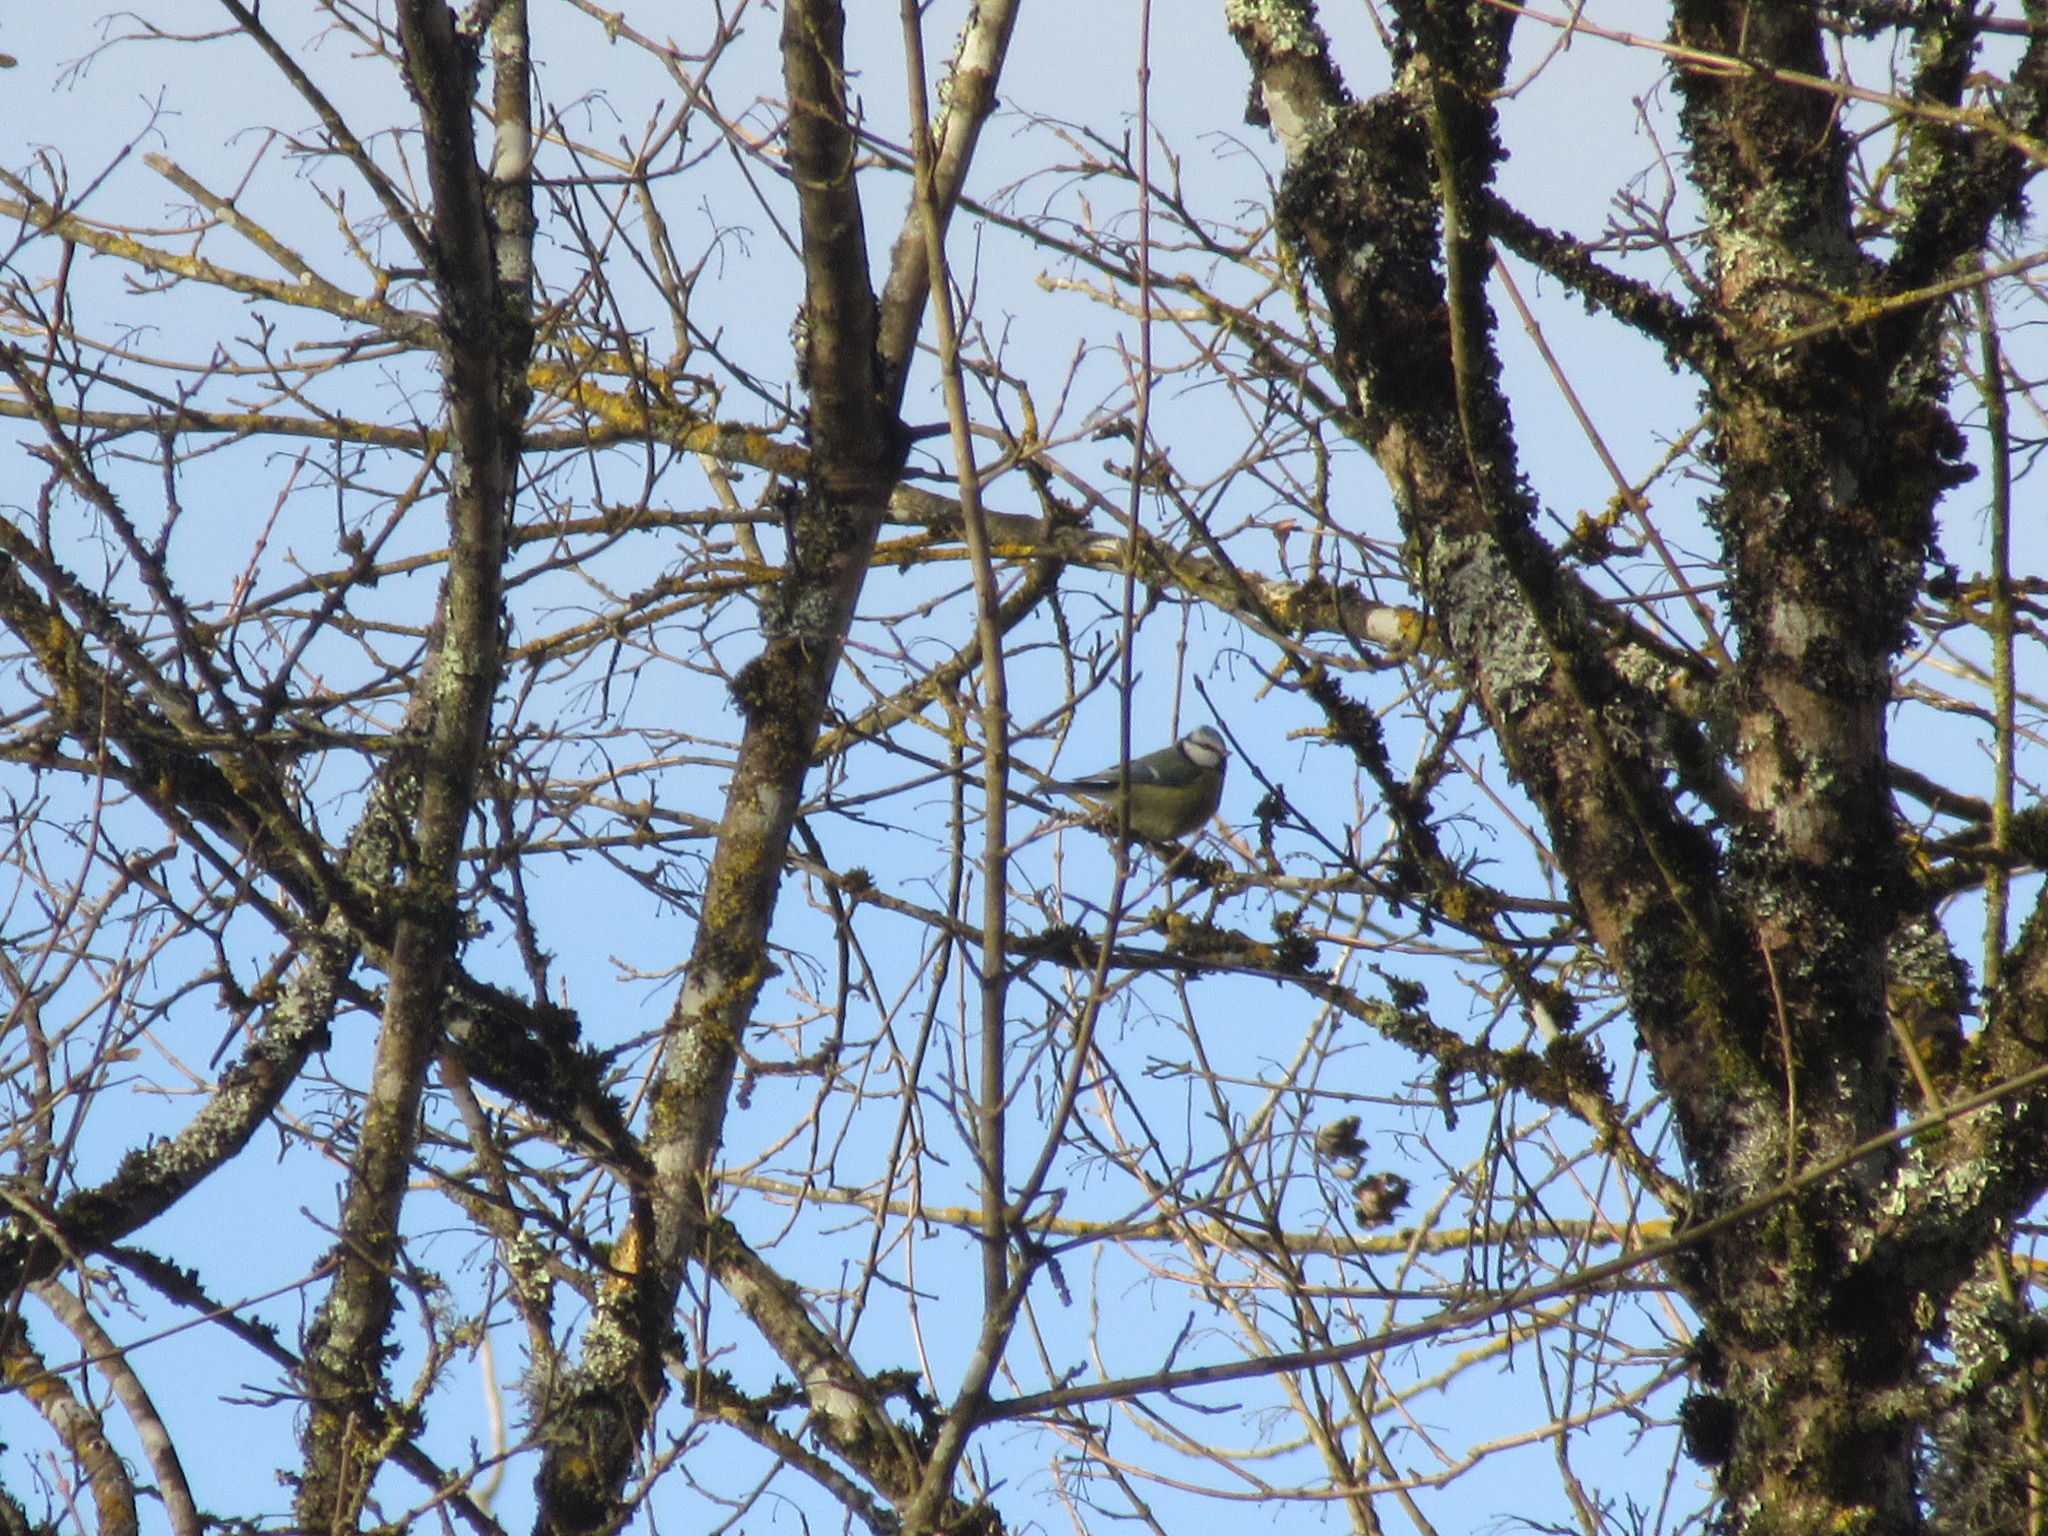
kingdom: Animalia
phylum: Chordata
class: Aves
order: Passeriformes
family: Paridae
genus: Cyanistes
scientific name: Cyanistes caeruleus
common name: Eurasian blue tit
